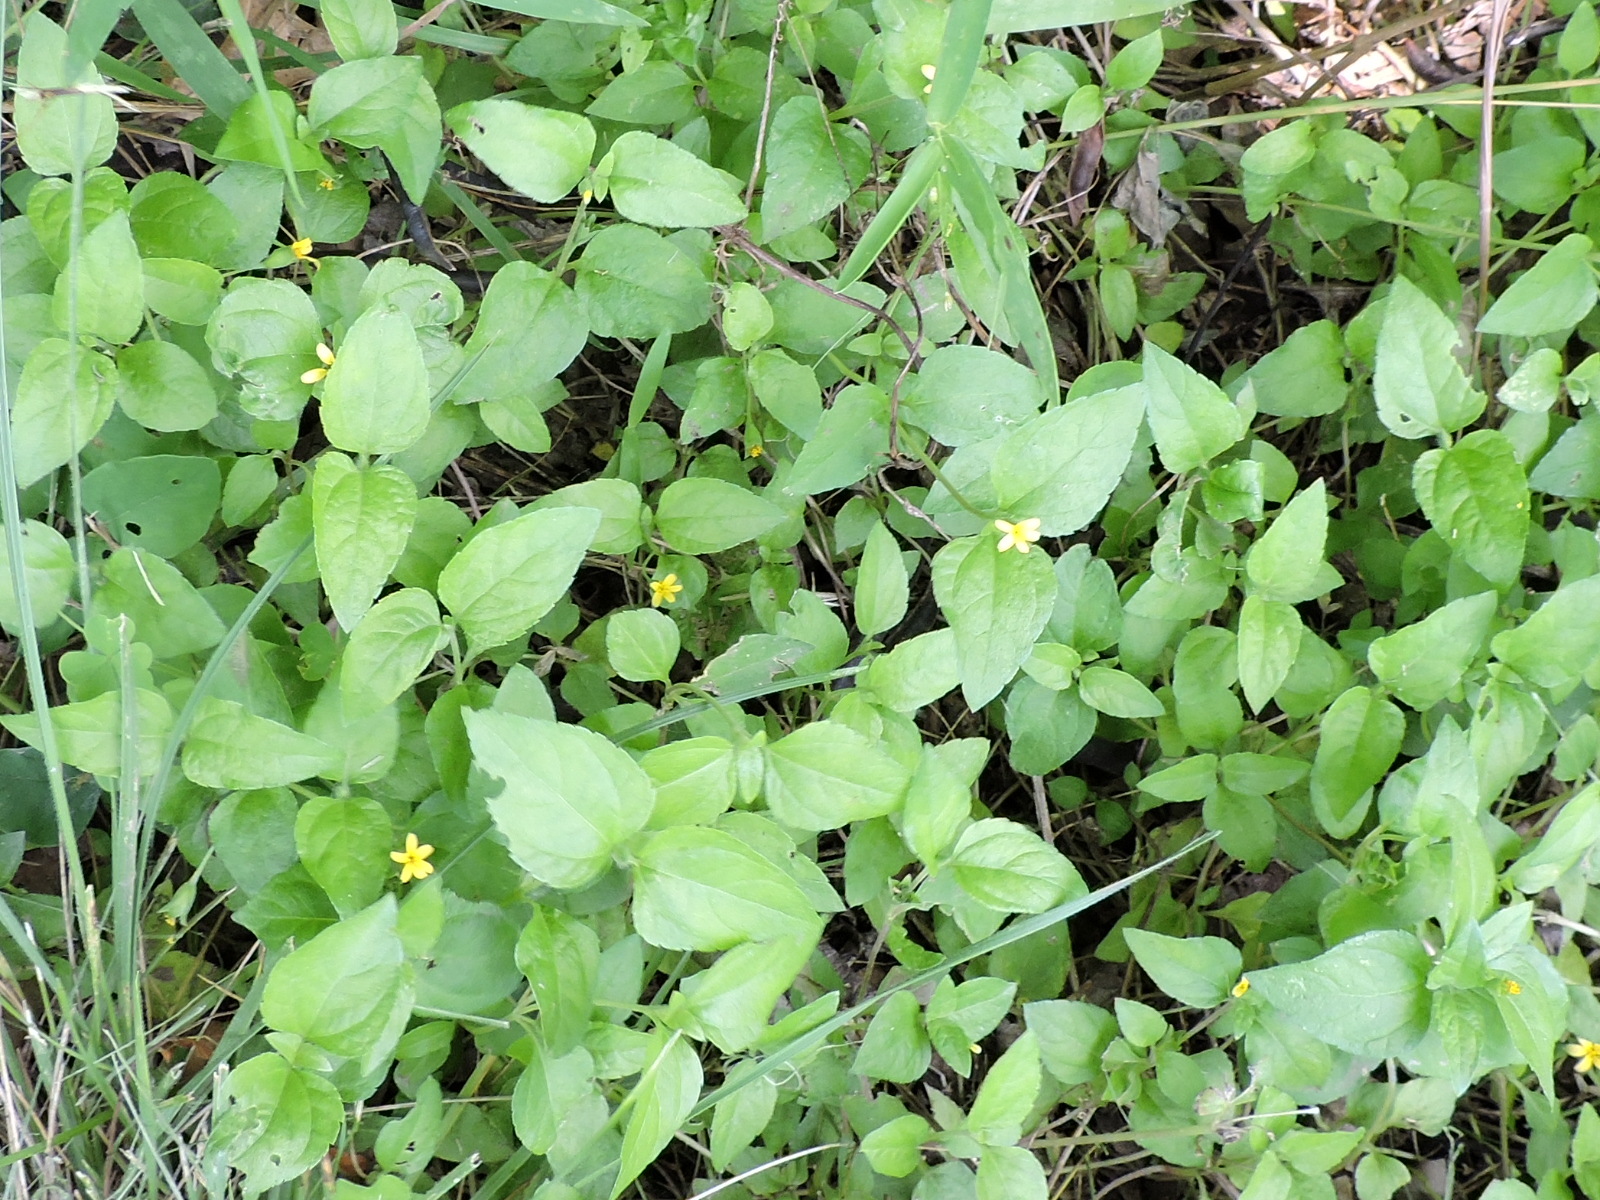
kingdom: Plantae
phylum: Tracheophyta
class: Magnoliopsida
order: Asterales
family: Asteraceae
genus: Calyptocarpus
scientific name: Calyptocarpus vialis
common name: Straggler daisy
